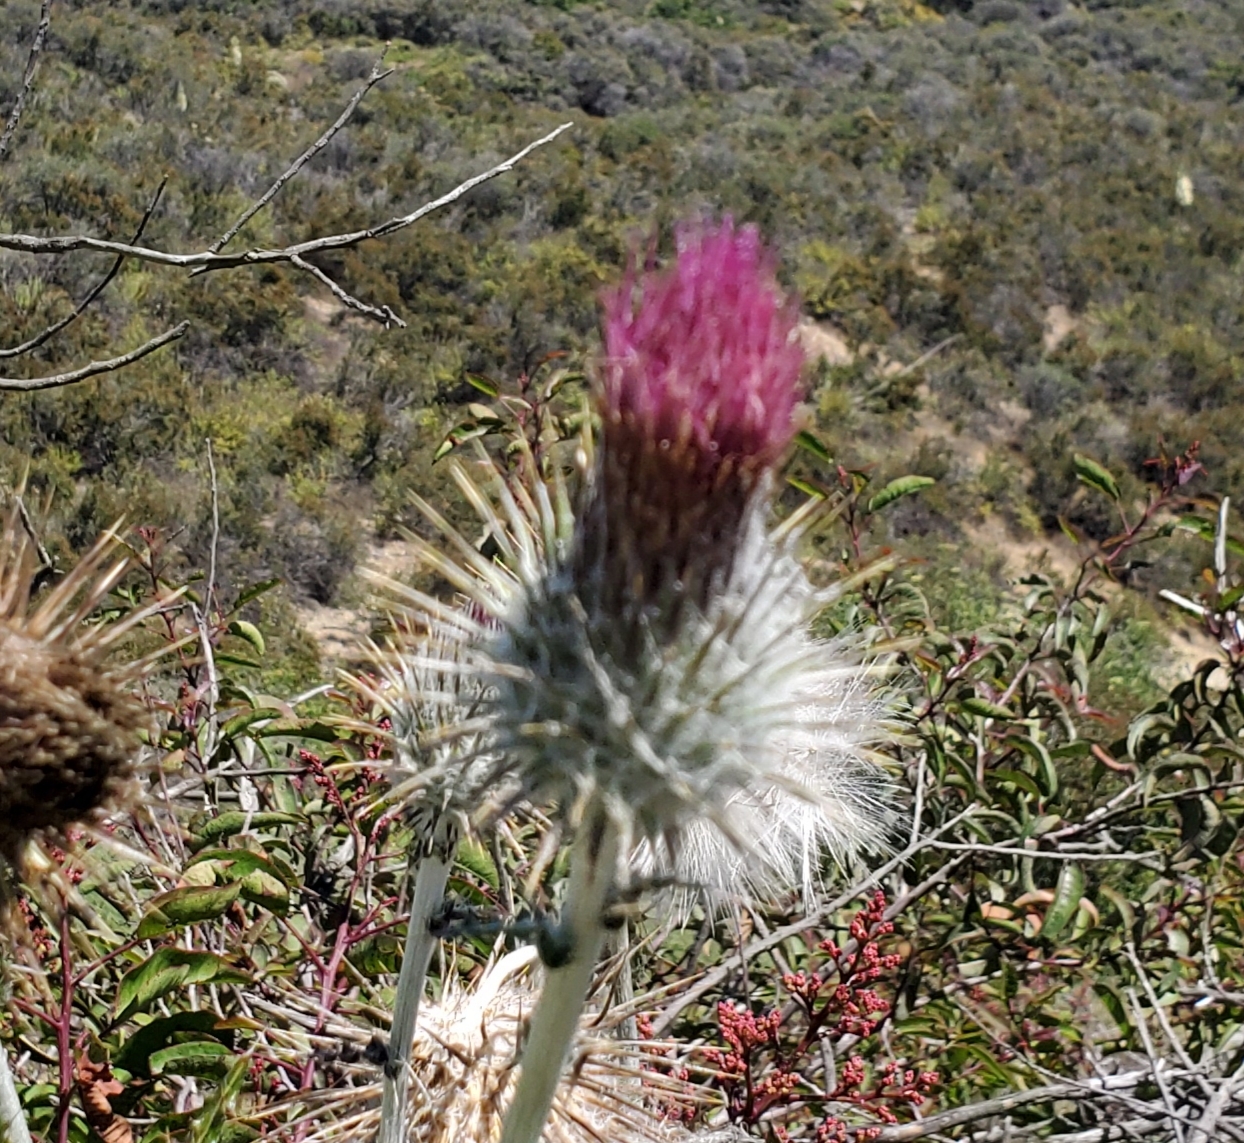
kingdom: Plantae
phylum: Tracheophyta
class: Magnoliopsida
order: Asterales
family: Asteraceae
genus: Cirsium
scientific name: Cirsium occidentale
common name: Western thistle
